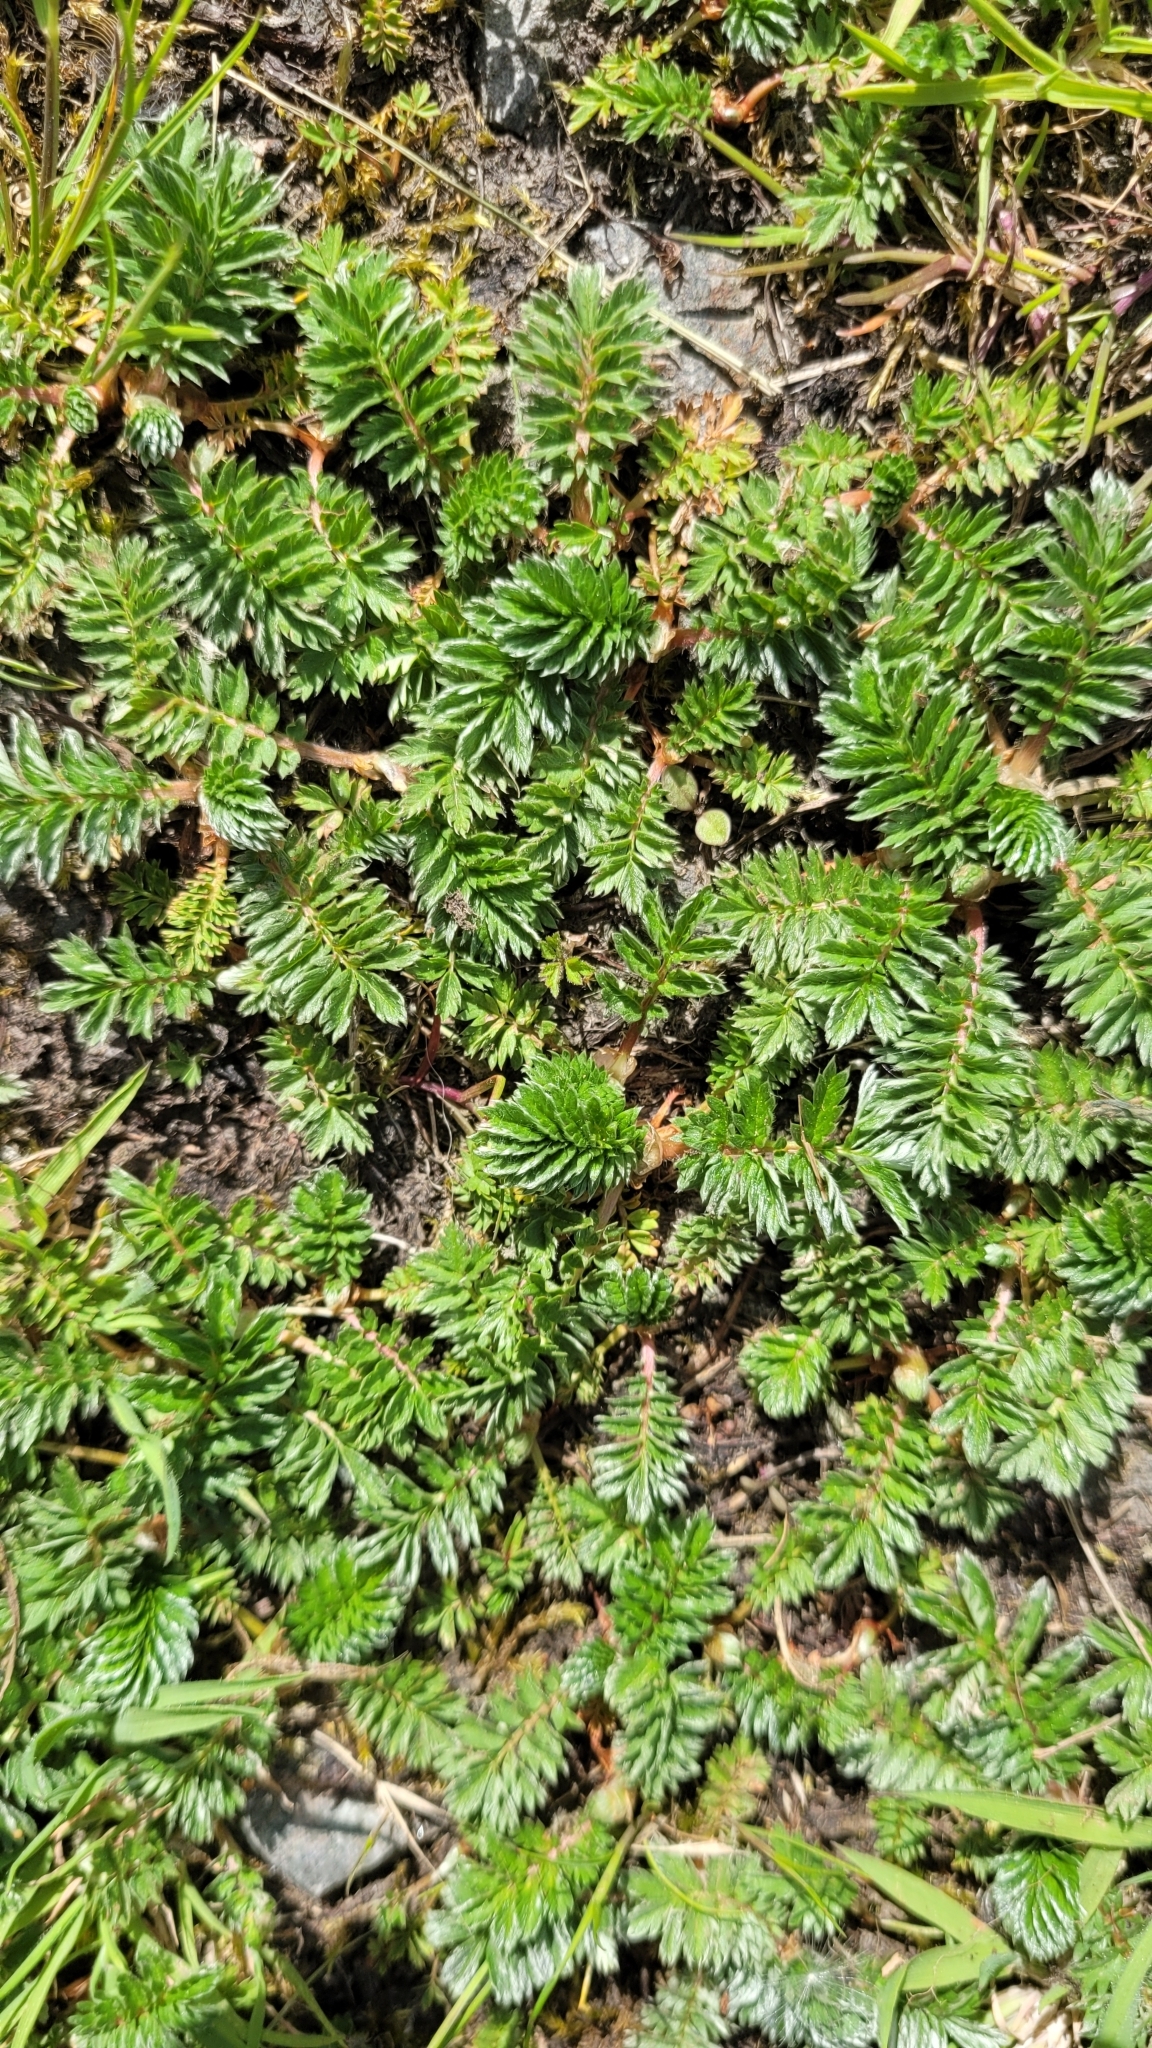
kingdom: Plantae
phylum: Tracheophyta
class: Magnoliopsida
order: Rosales
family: Rosaceae
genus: Argentina
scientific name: Argentina anserina
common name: Common silverweed
